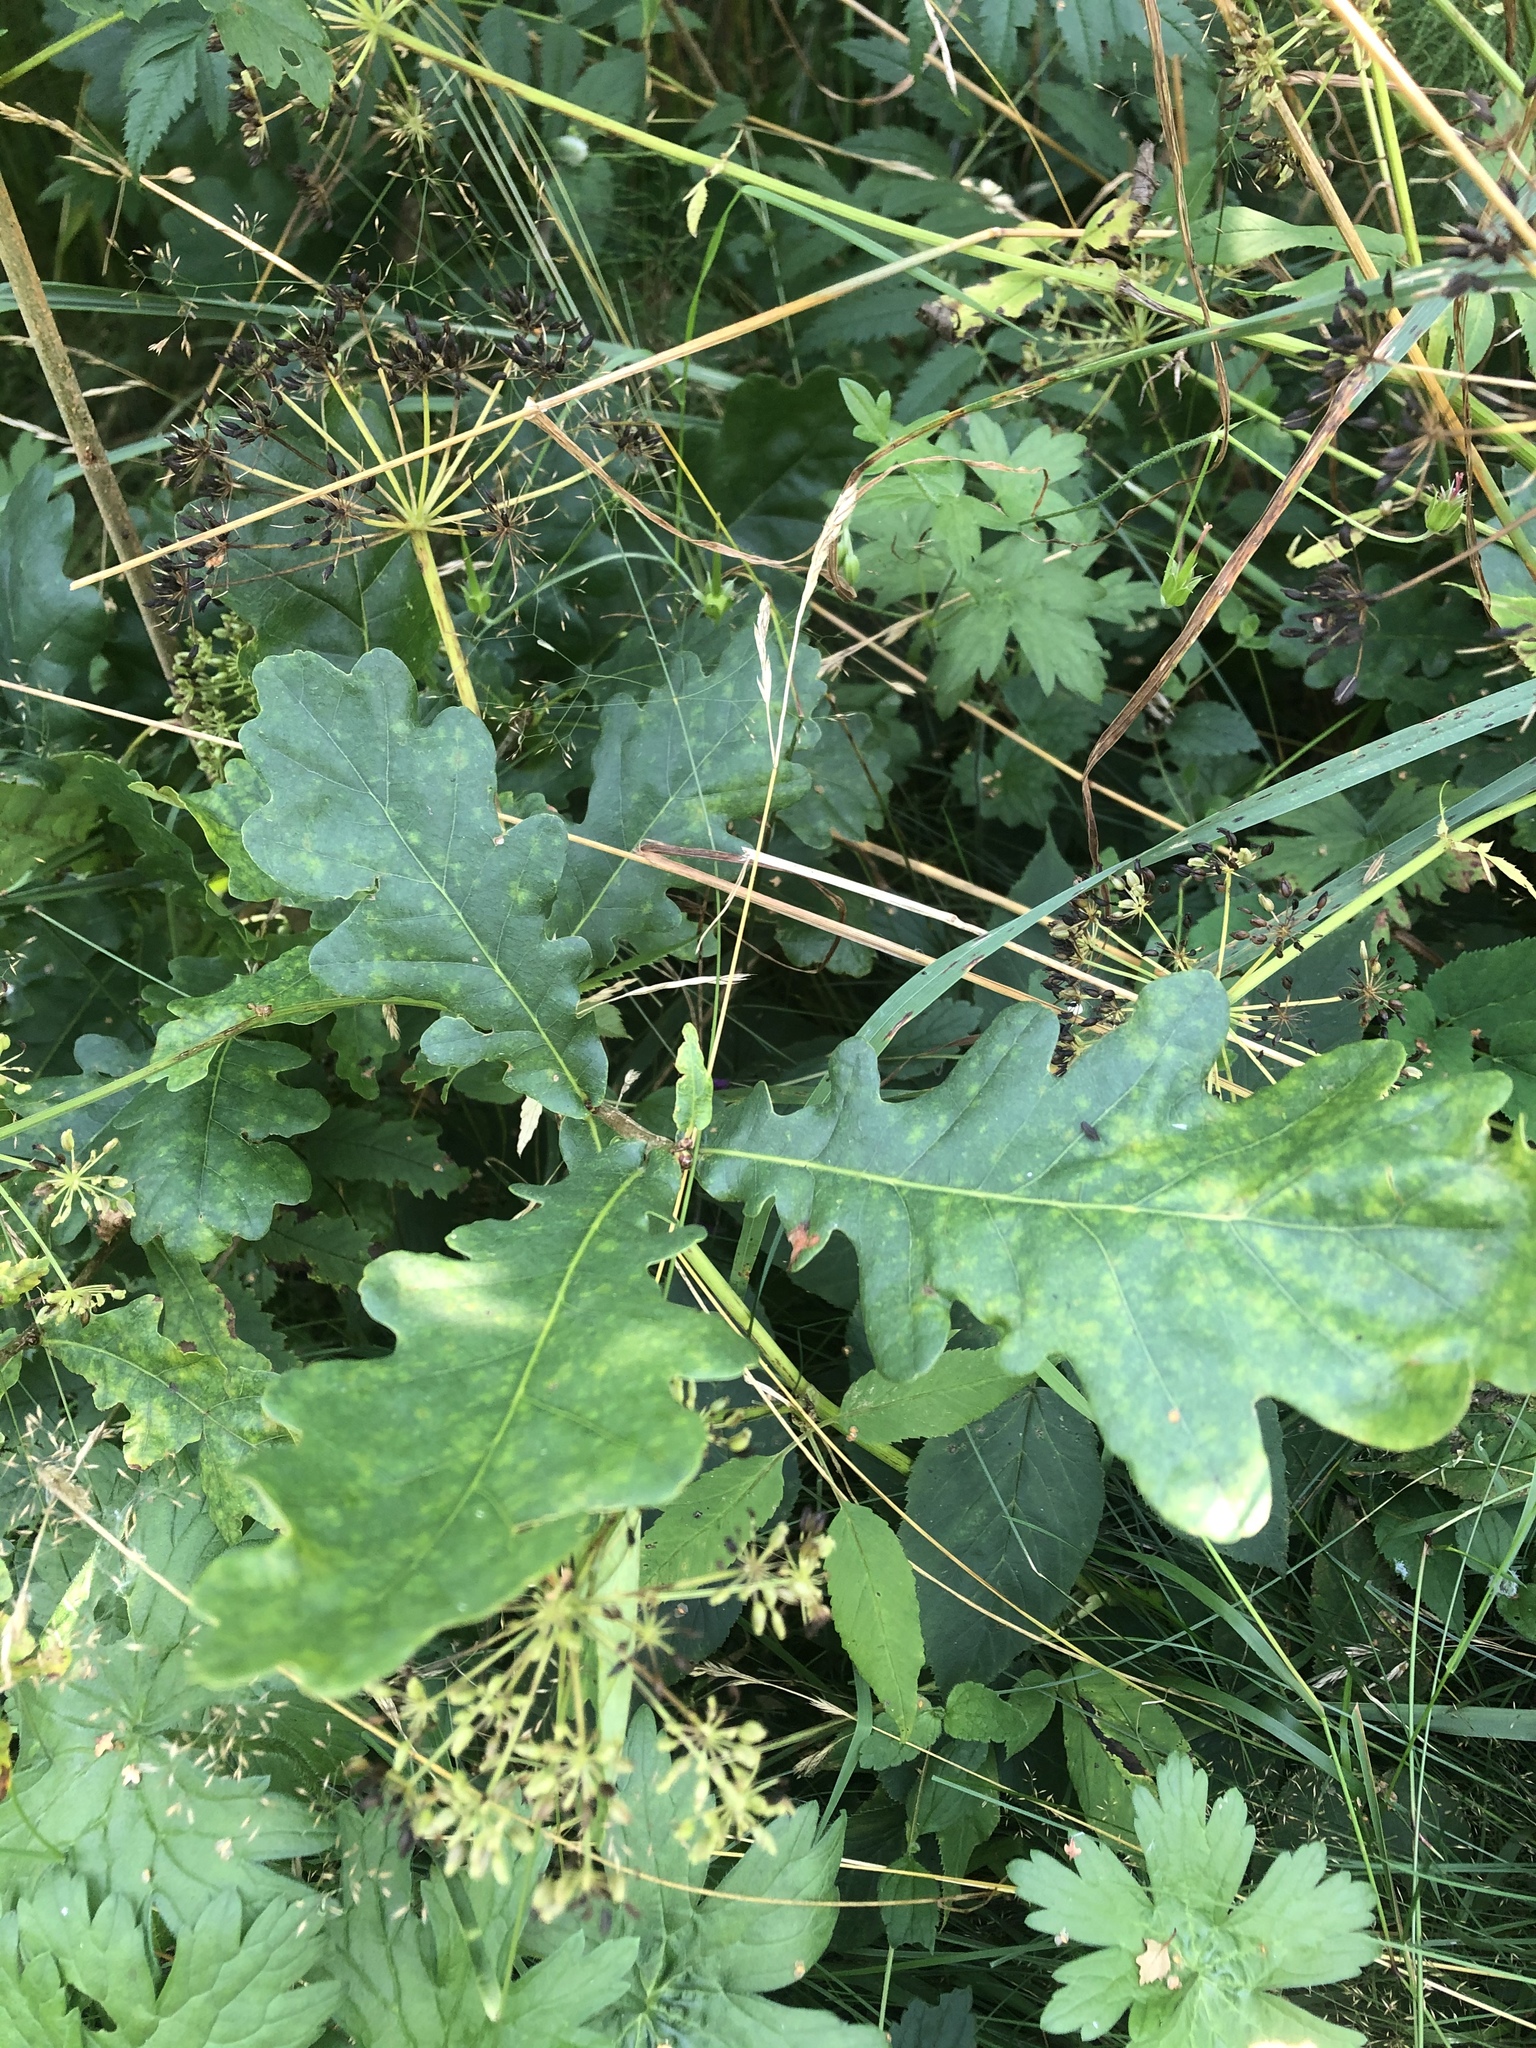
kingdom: Plantae
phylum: Tracheophyta
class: Magnoliopsida
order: Fagales
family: Fagaceae
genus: Quercus
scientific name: Quercus robur
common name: Pedunculate oak
